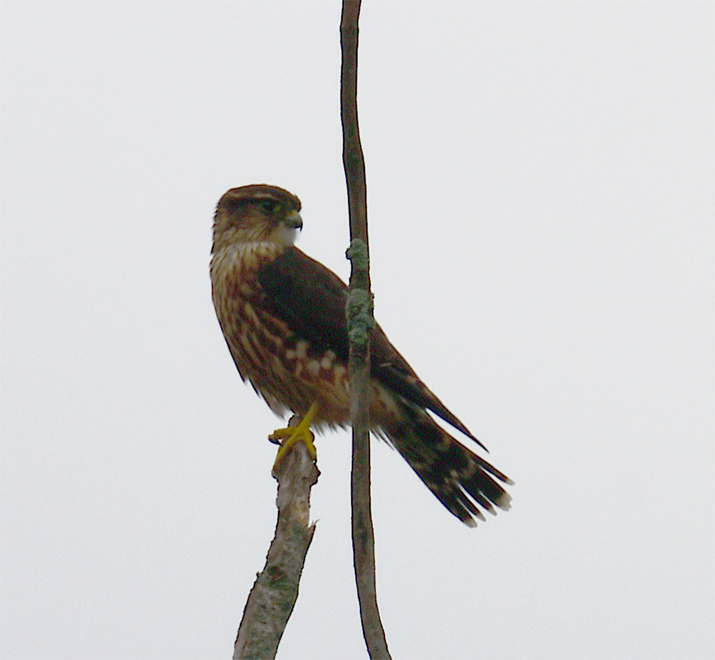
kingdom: Animalia
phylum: Chordata
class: Aves
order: Falconiformes
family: Falconidae
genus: Falco
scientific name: Falco columbarius
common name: Merlin
